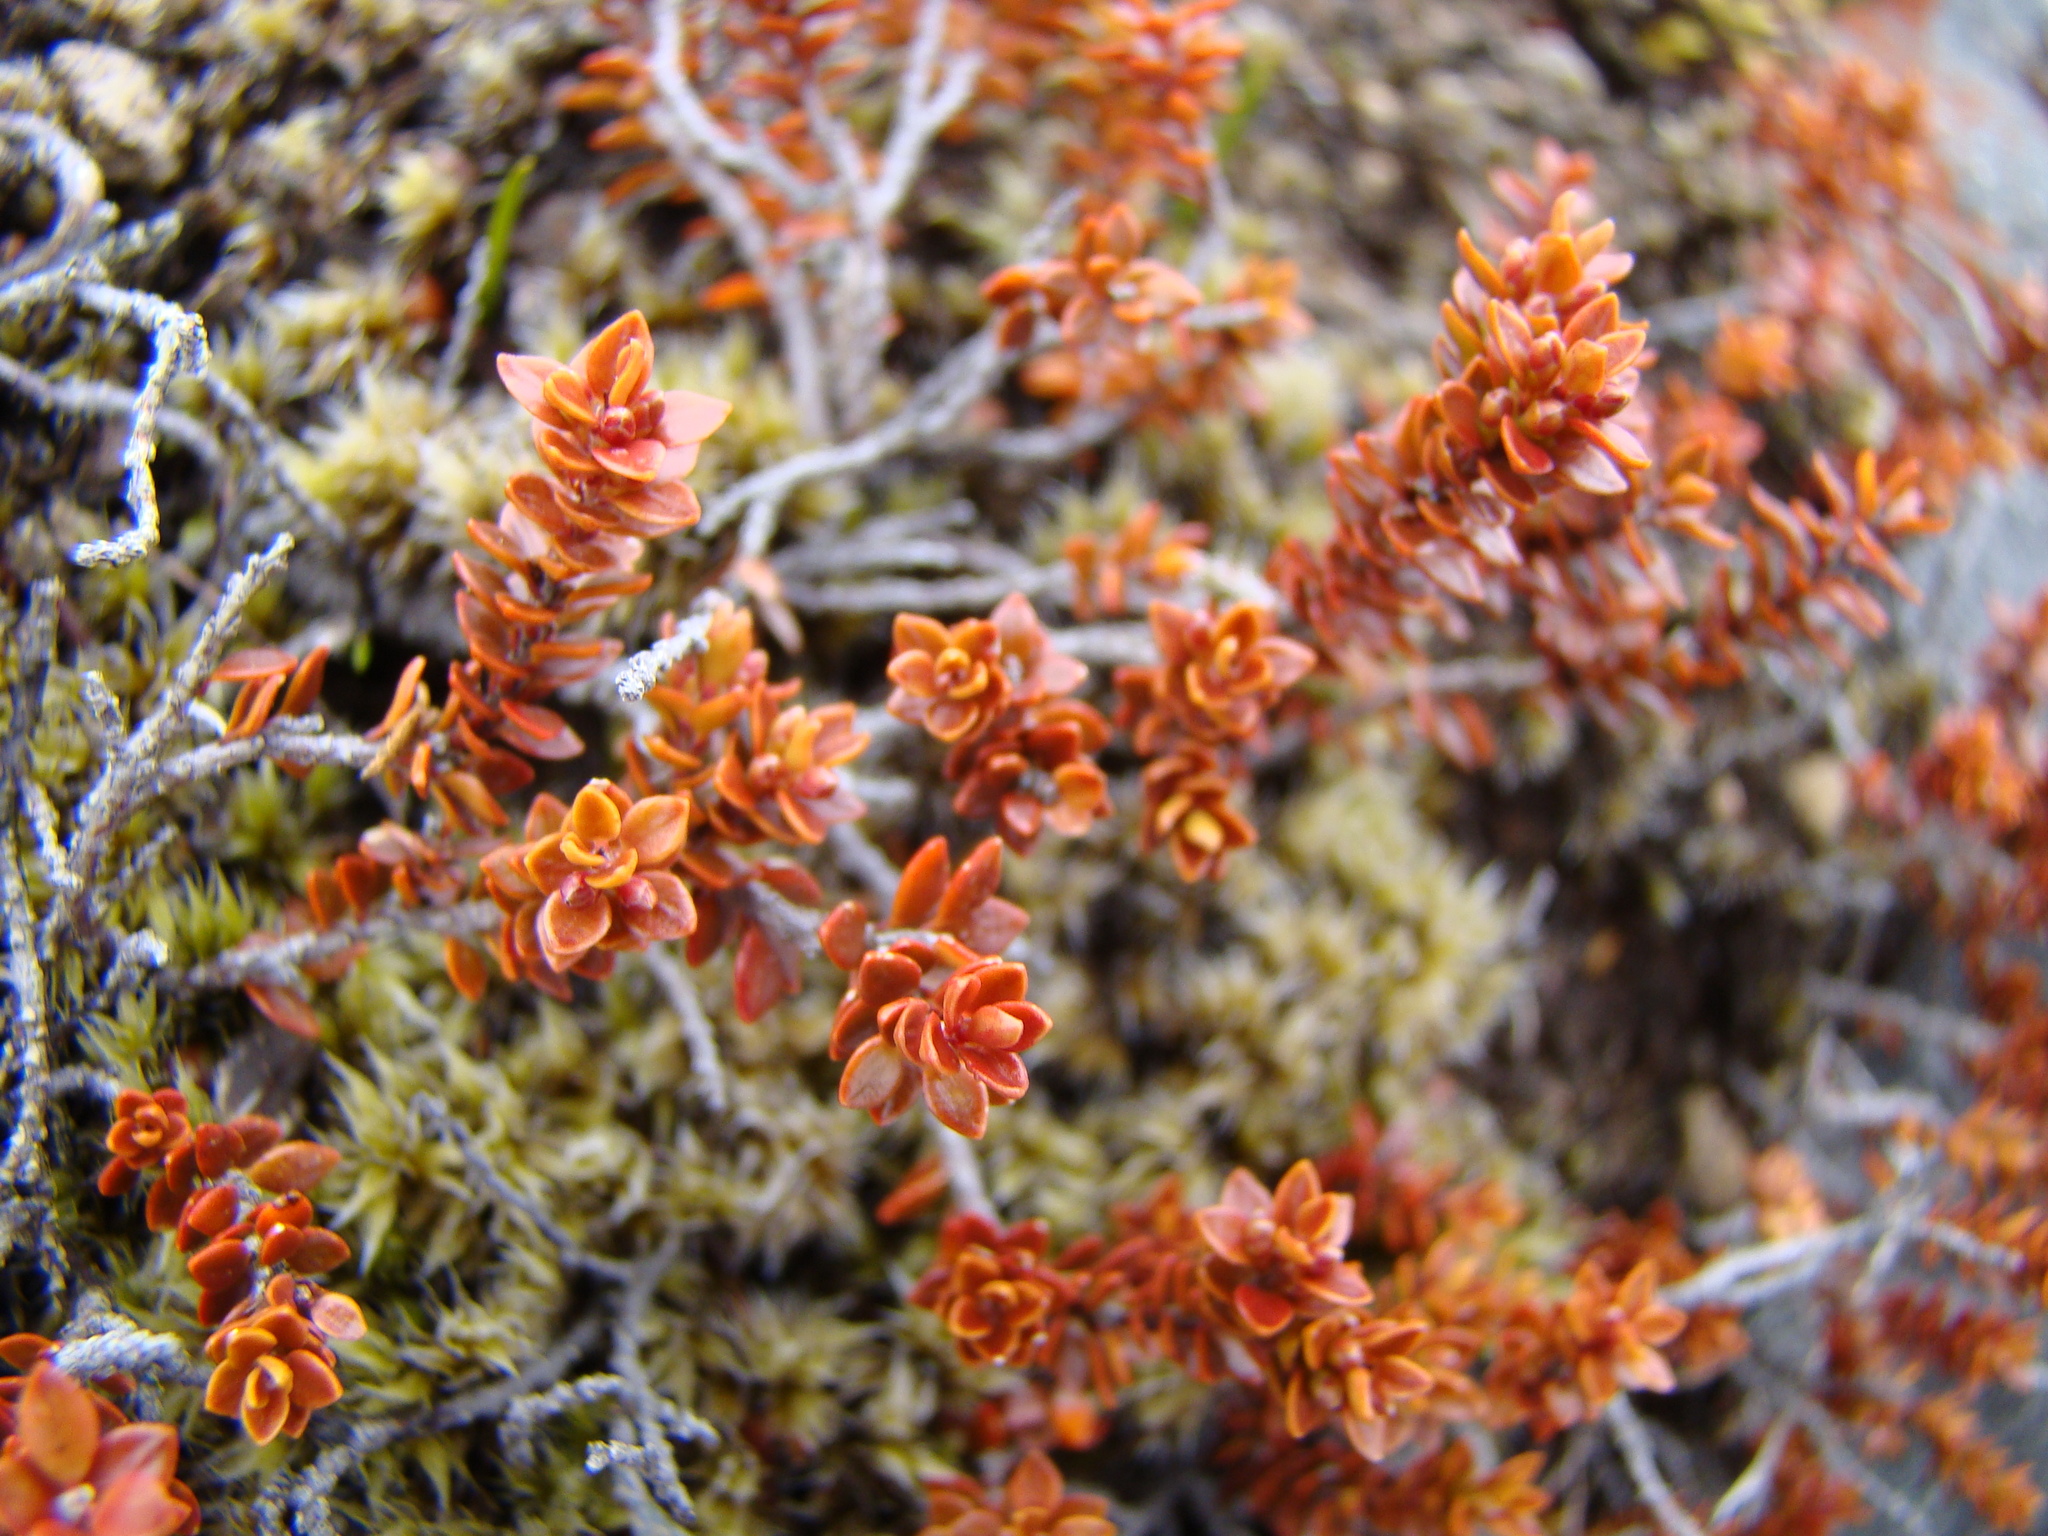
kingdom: Plantae
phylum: Tracheophyta
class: Magnoliopsida
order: Ericales
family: Ericaceae
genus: Epacris
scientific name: Epacris alpina
